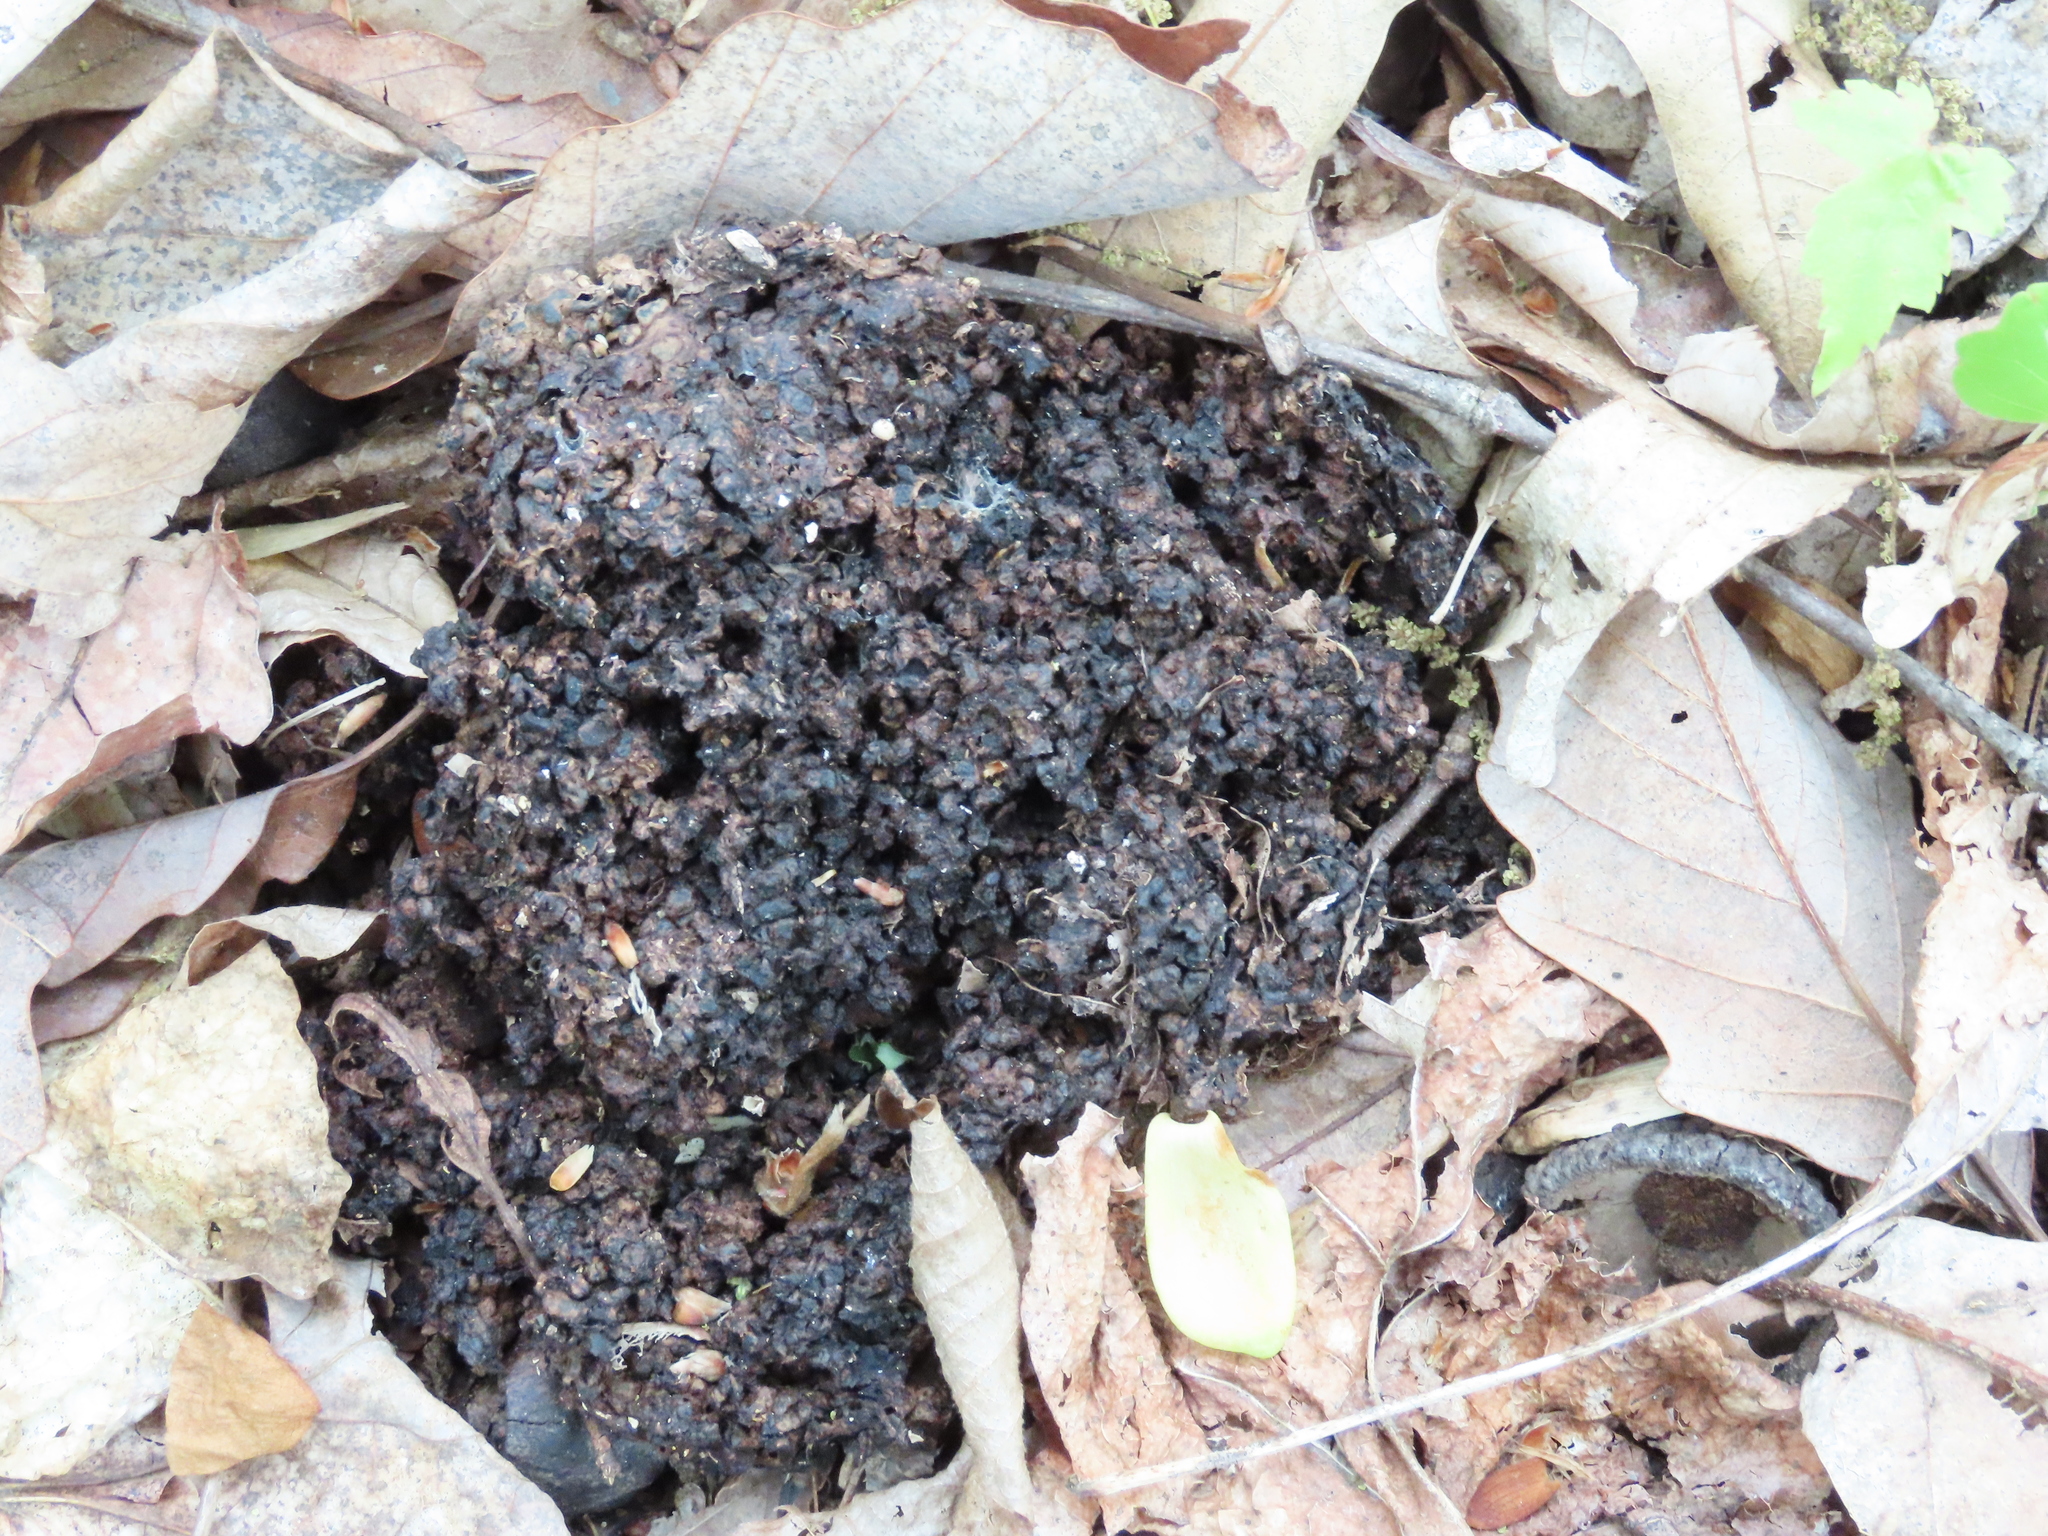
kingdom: Animalia
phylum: Chordata
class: Mammalia
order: Carnivora
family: Ursidae
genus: Ursus
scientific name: Ursus americanus
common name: American black bear
